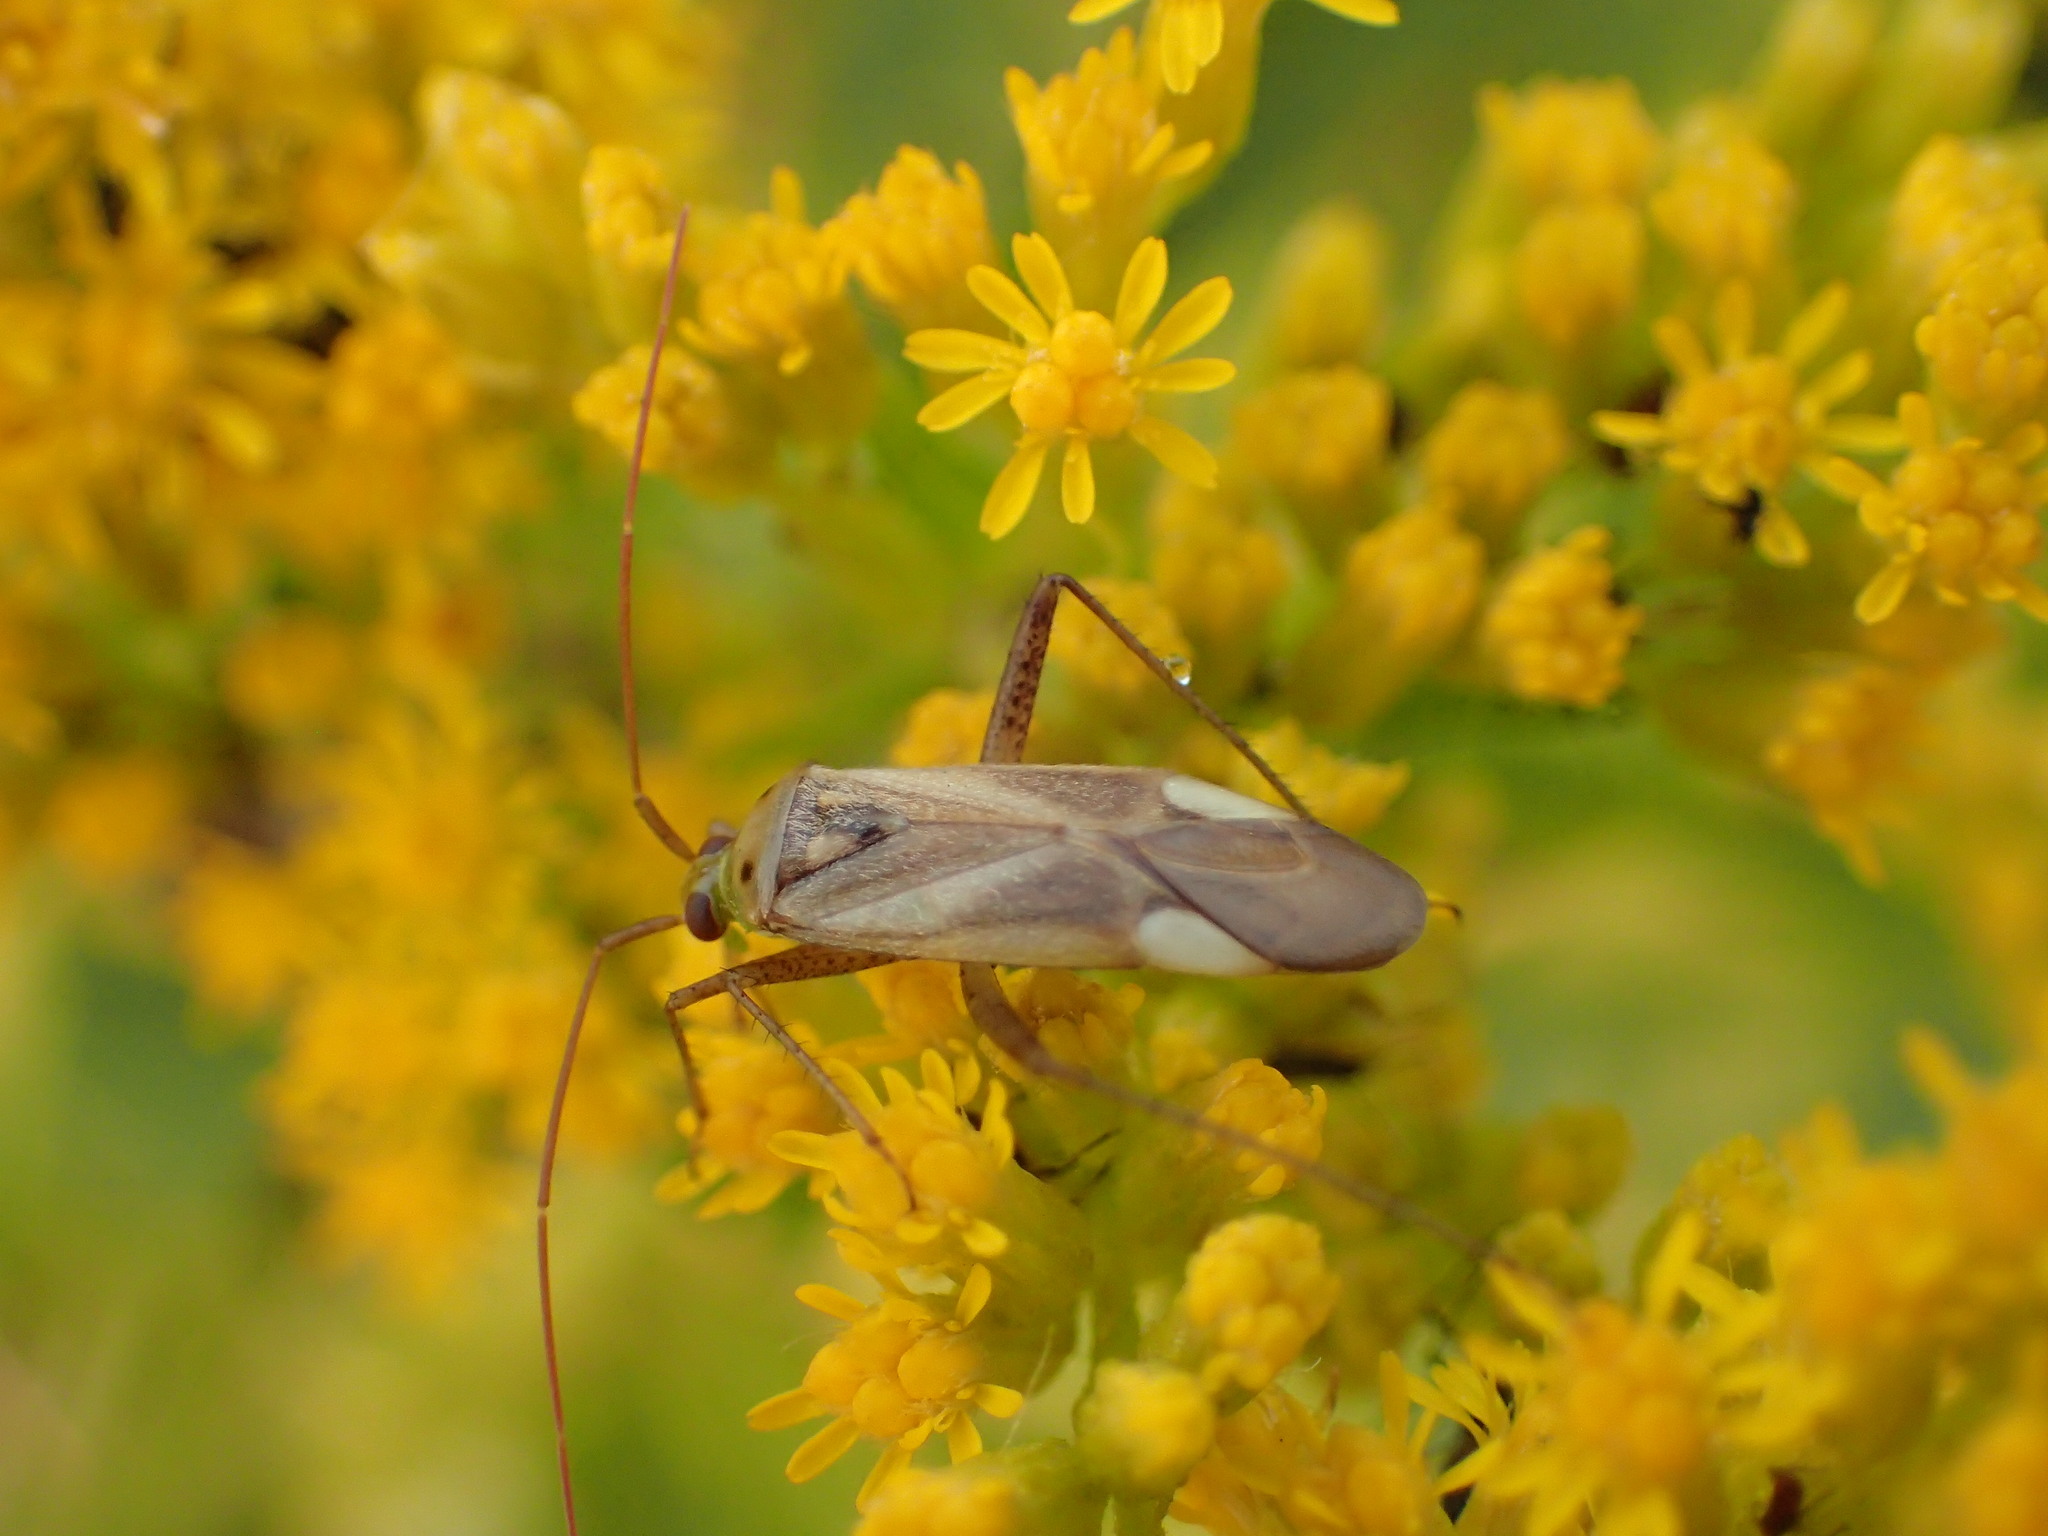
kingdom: Animalia
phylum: Arthropoda
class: Insecta
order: Hemiptera
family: Miridae
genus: Adelphocoris
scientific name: Adelphocoris lineolatus
